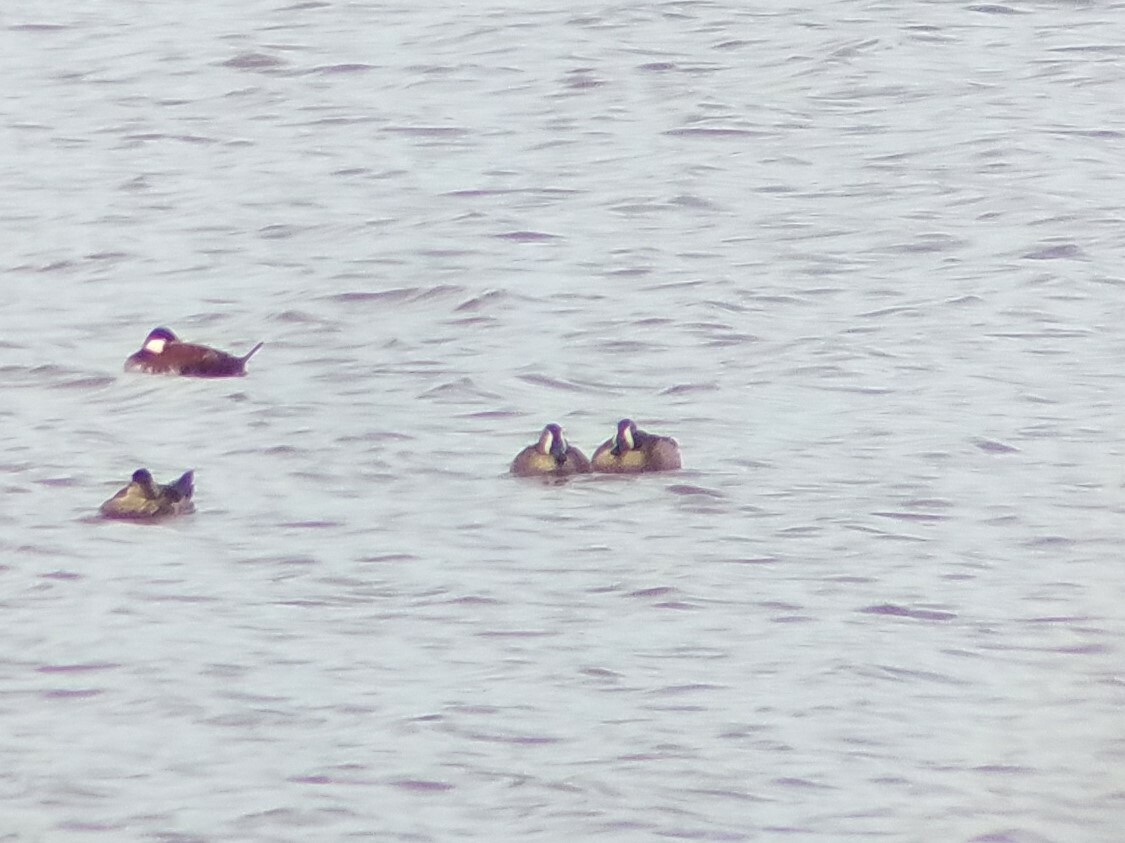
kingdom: Animalia
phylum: Chordata
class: Aves
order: Anseriformes
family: Anatidae
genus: Spatula
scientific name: Spatula discors
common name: Blue-winged teal
